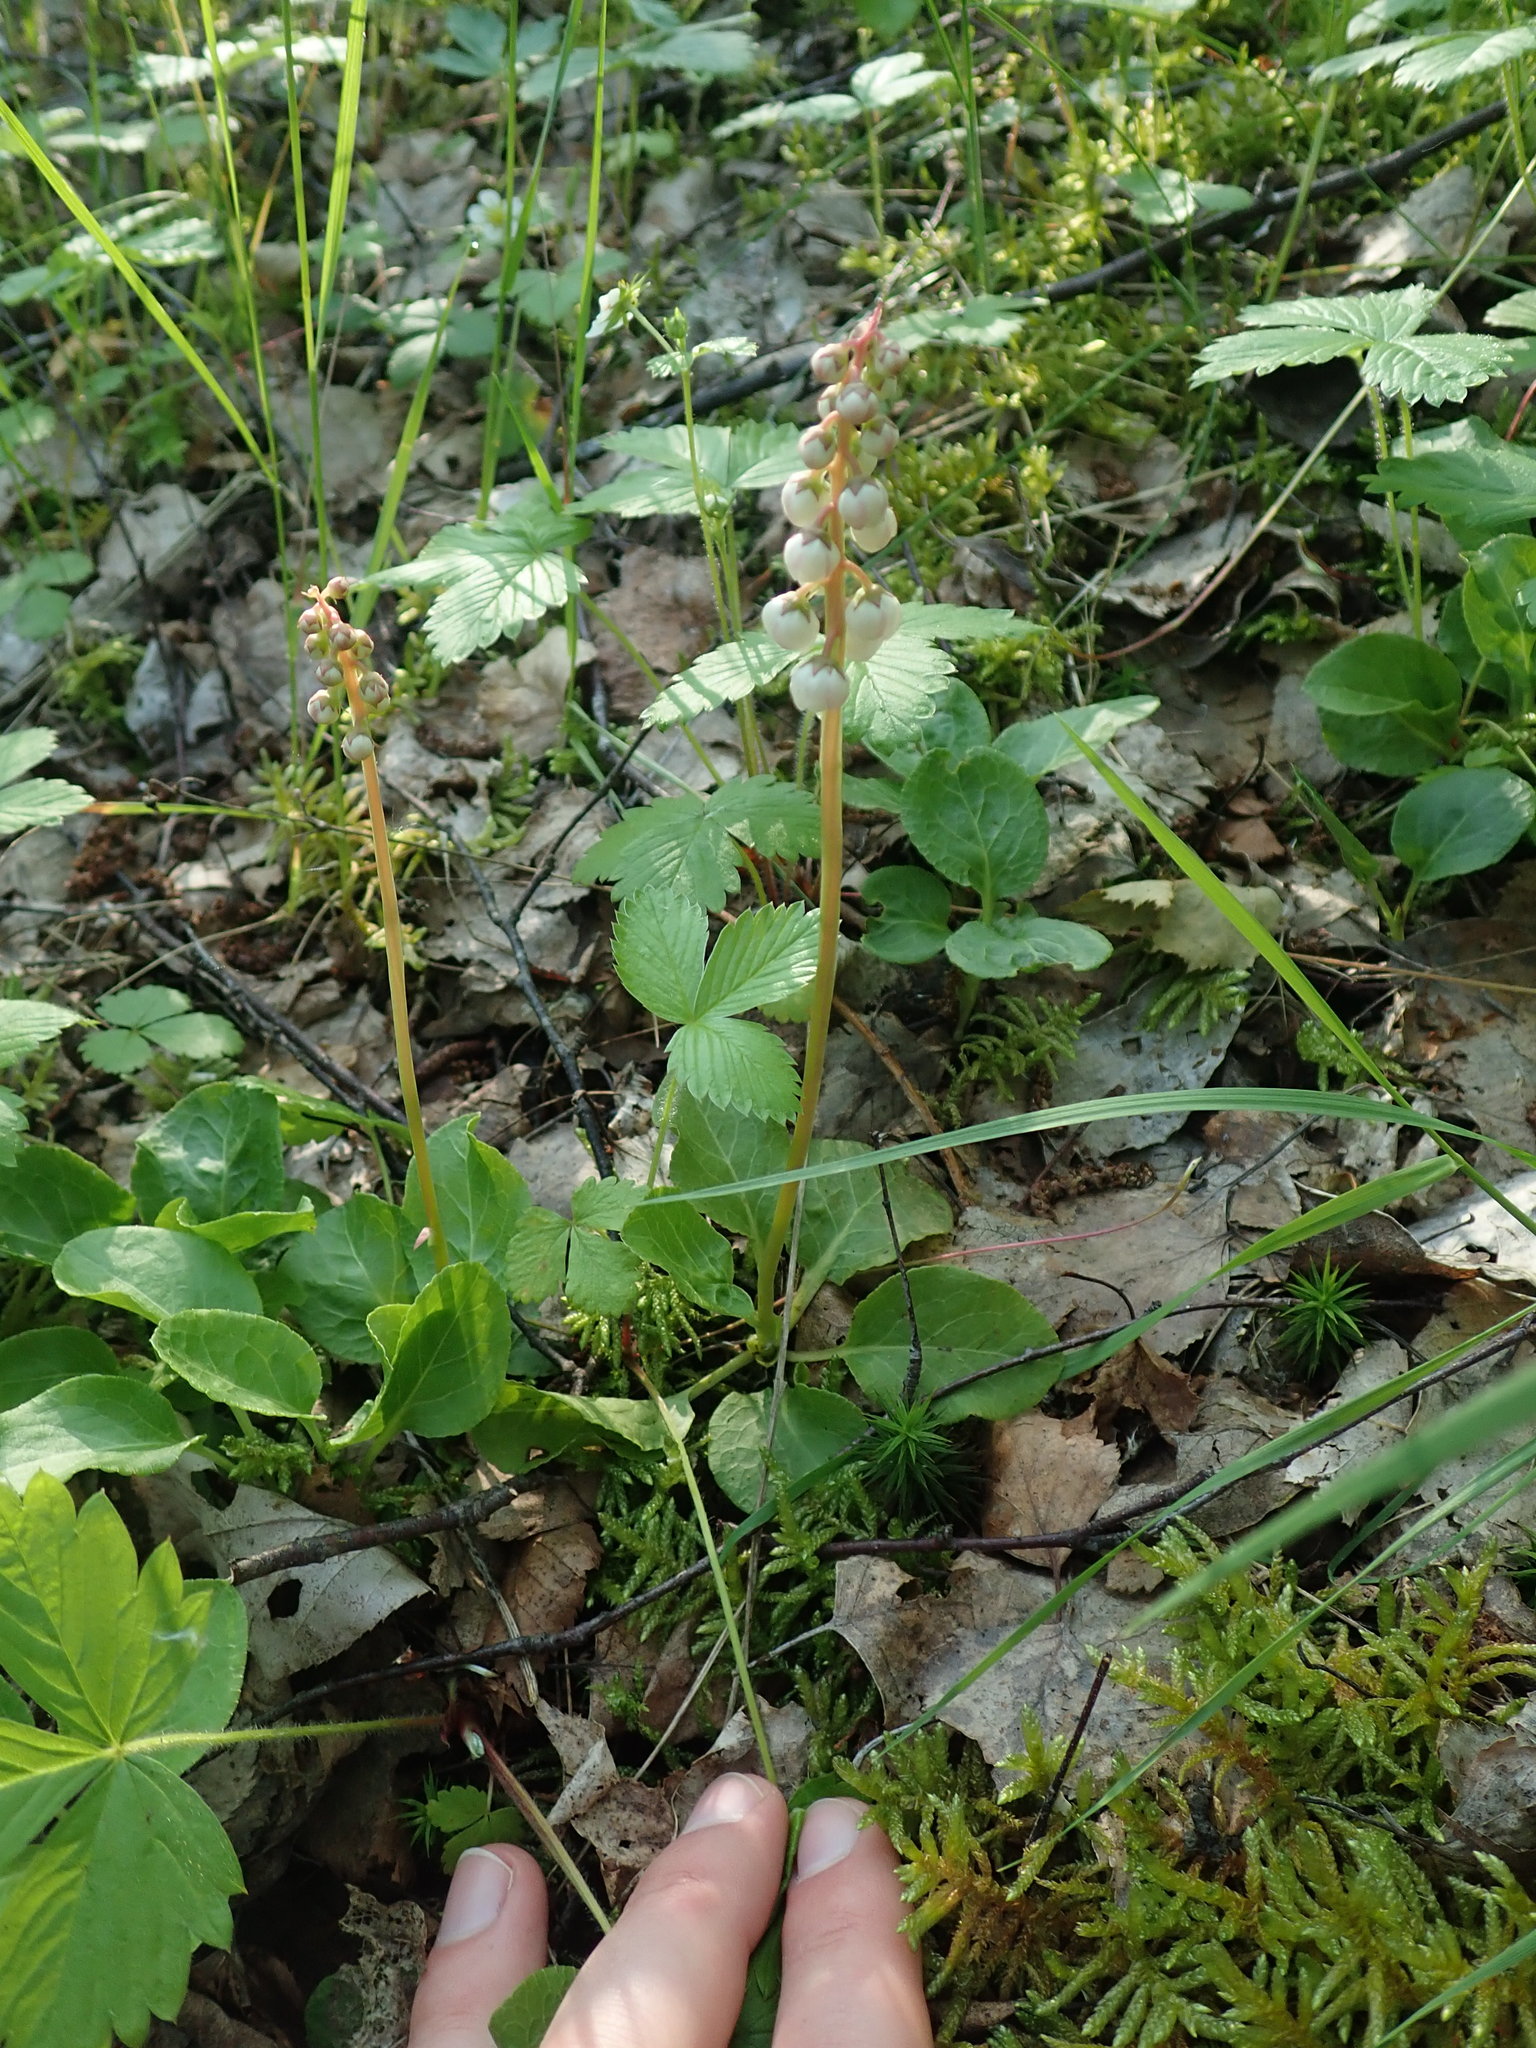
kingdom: Plantae
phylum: Tracheophyta
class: Magnoliopsida
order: Ericales
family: Ericaceae
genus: Pyrola
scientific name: Pyrola minor
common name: Common wintergreen
